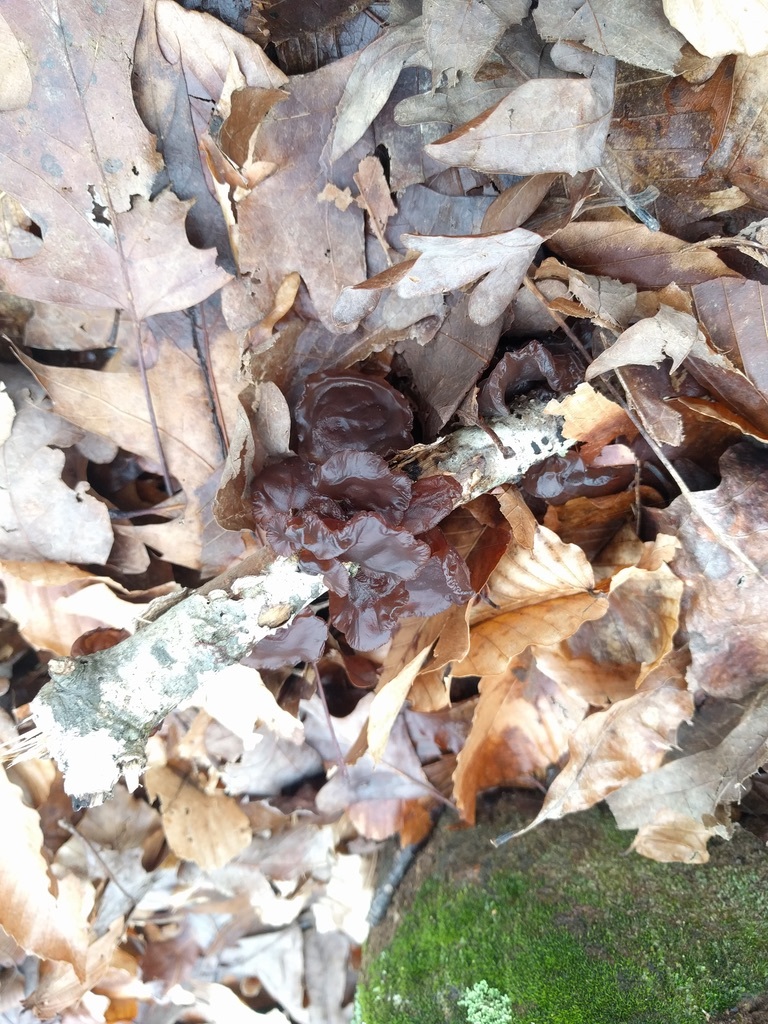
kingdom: Fungi
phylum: Basidiomycota
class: Agaricomycetes
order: Auriculariales
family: Auriculariaceae
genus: Exidia
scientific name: Exidia recisa
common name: Amber jelly
